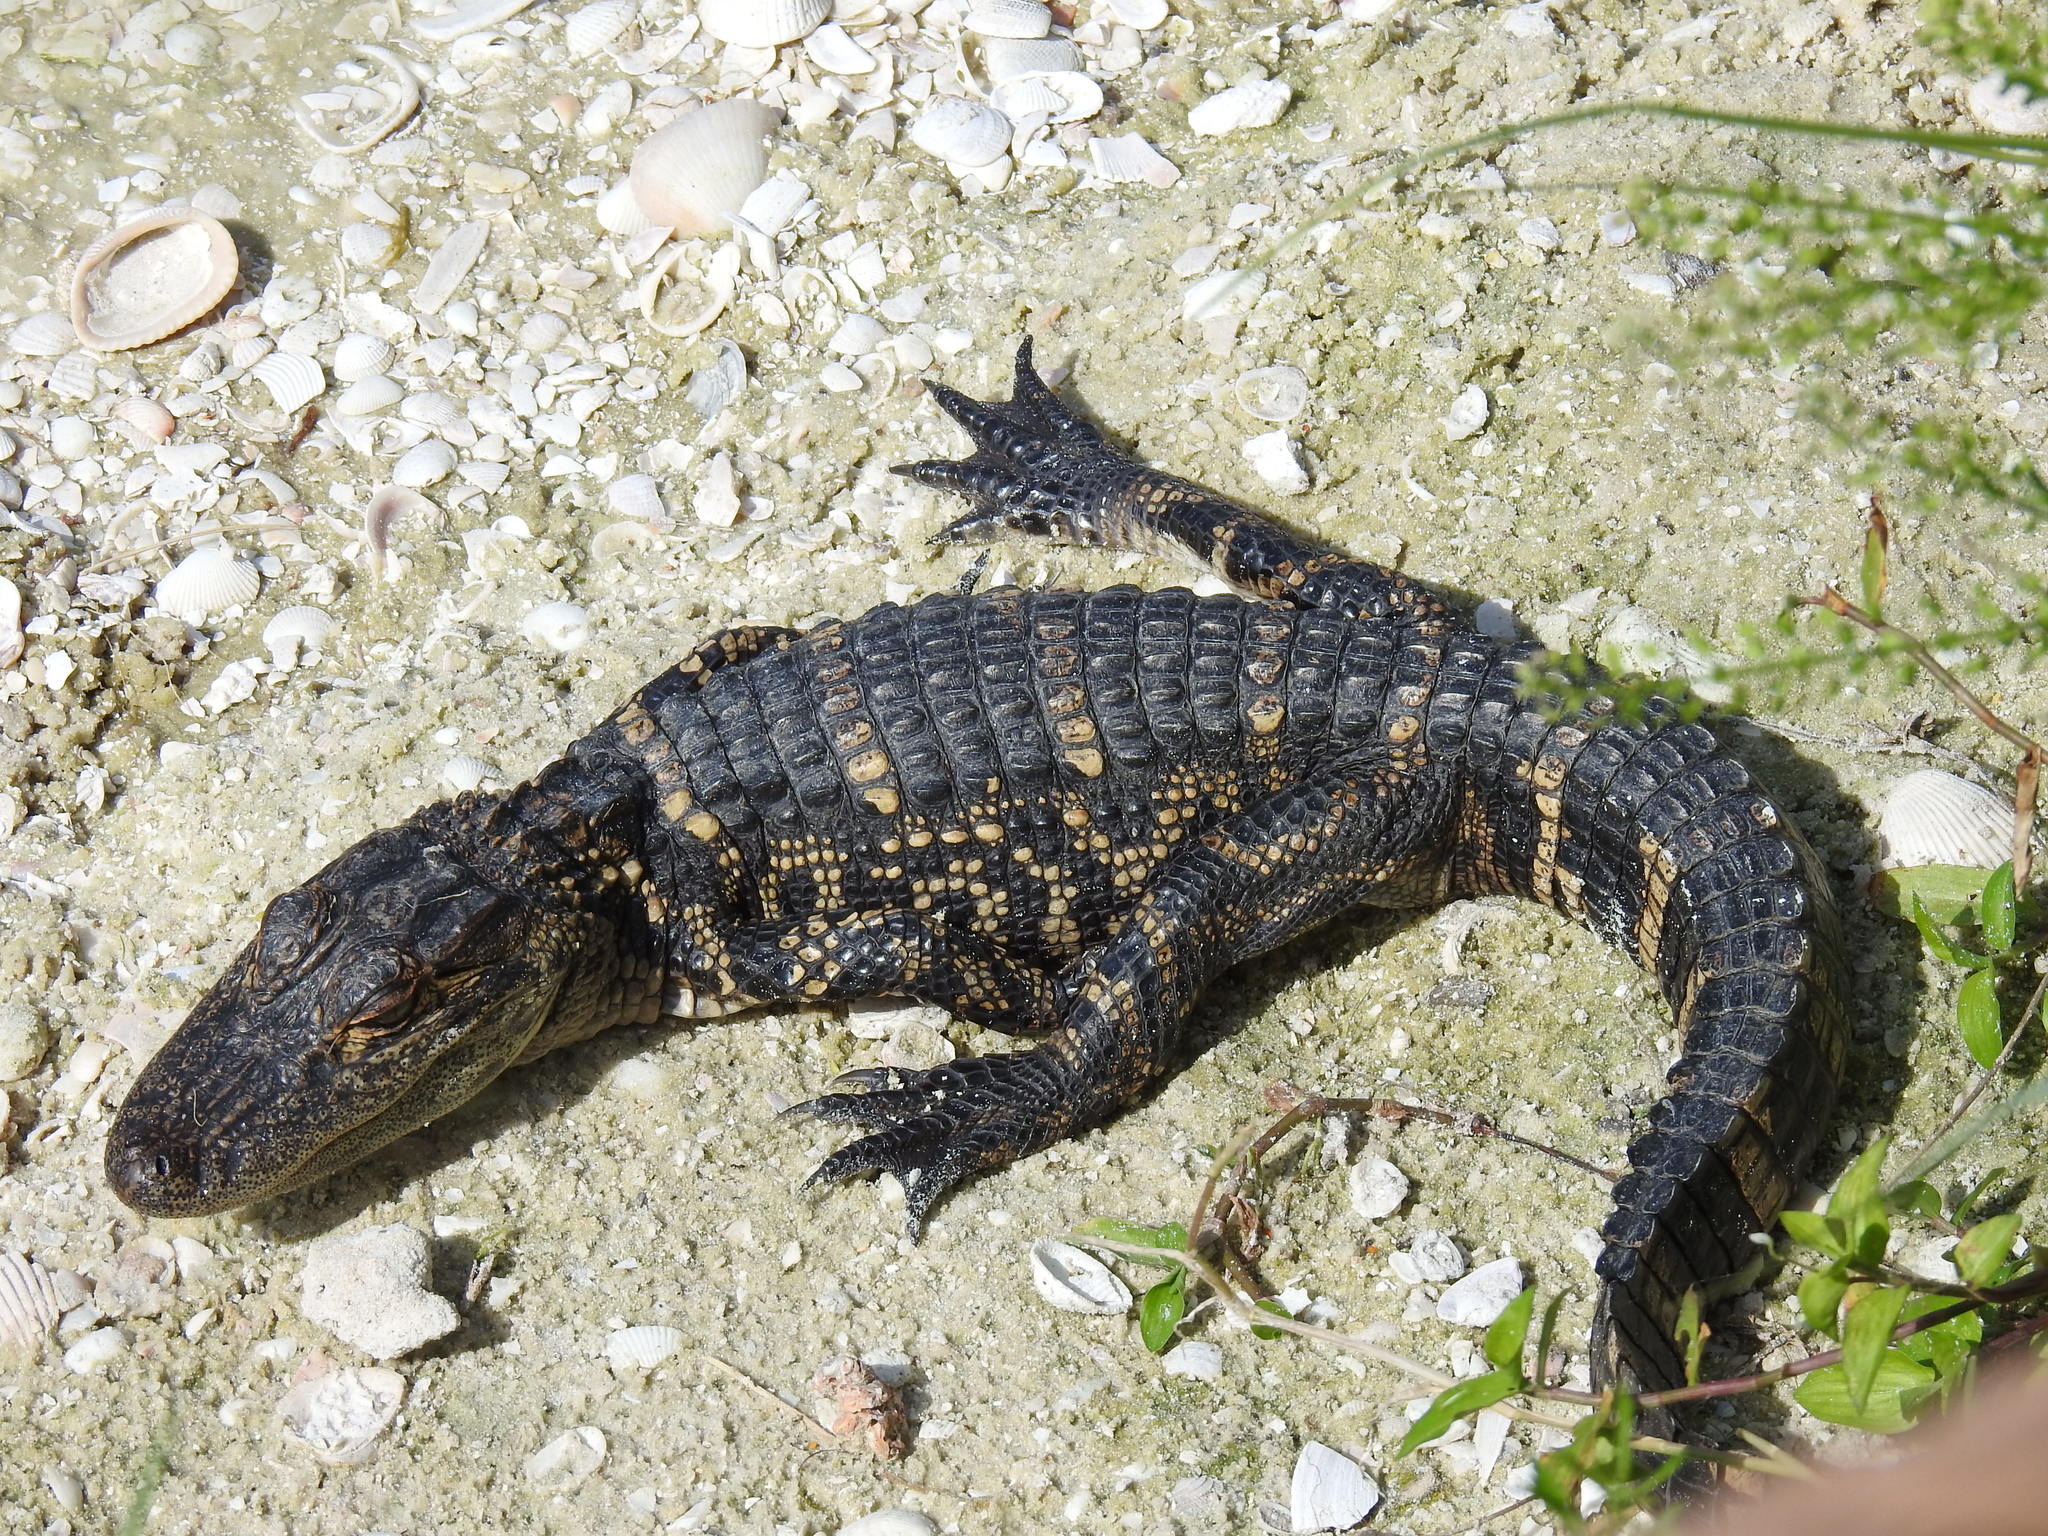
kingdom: Animalia
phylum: Chordata
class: Crocodylia
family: Alligatoridae
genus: Alligator
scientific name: Alligator mississippiensis
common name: American alligator
